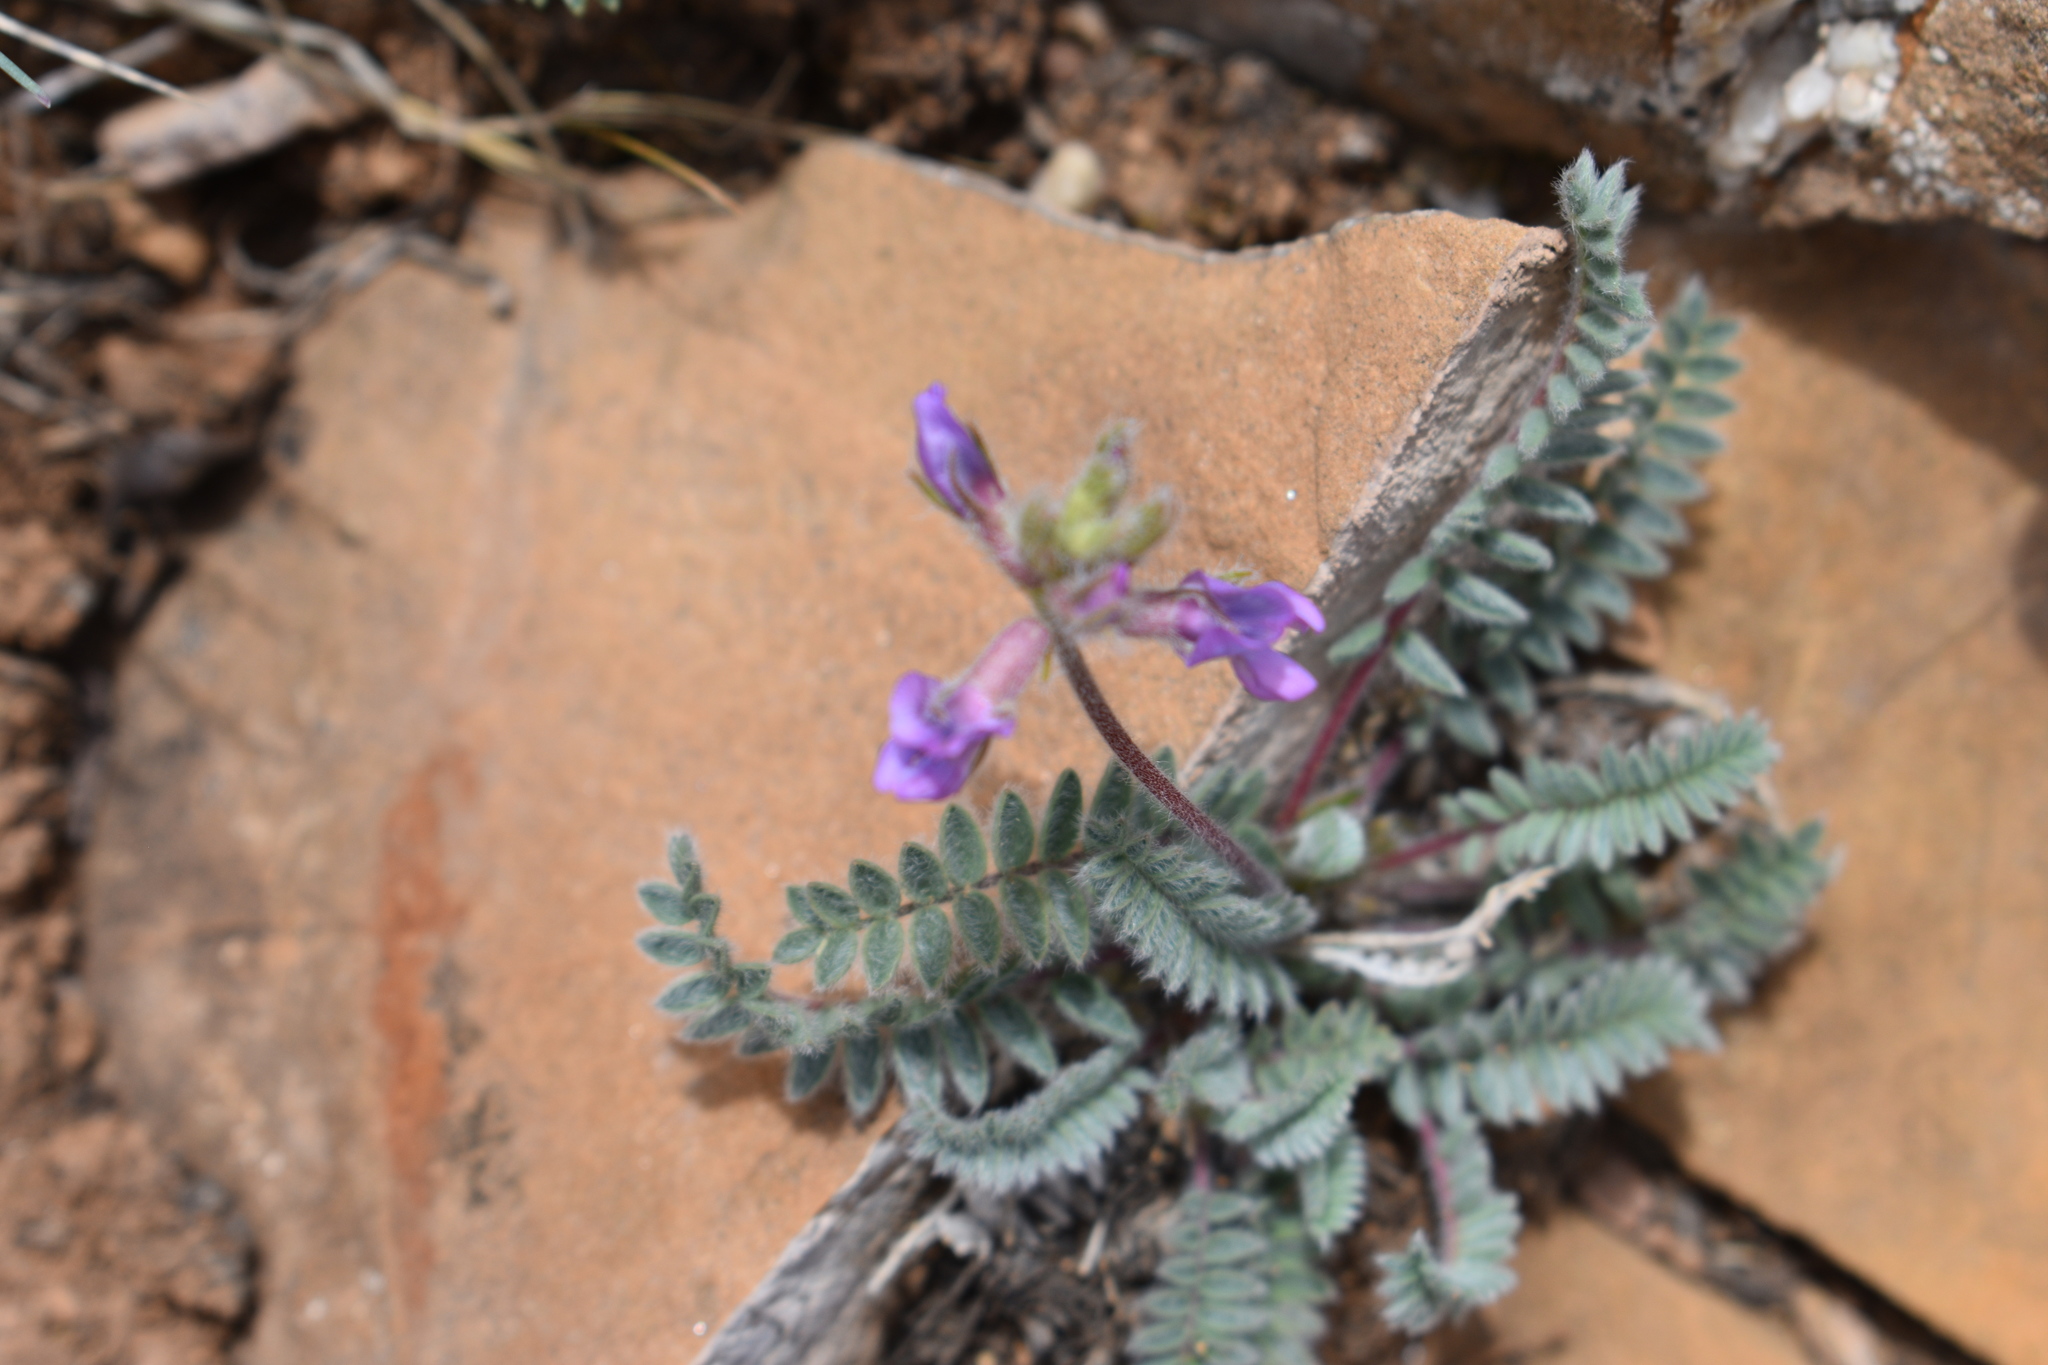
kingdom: Plantae
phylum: Tracheophyta
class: Magnoliopsida
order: Fabales
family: Fabaceae
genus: Oxytropis
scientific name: Oxytropis deflexa
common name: Stemmed oxytrope
